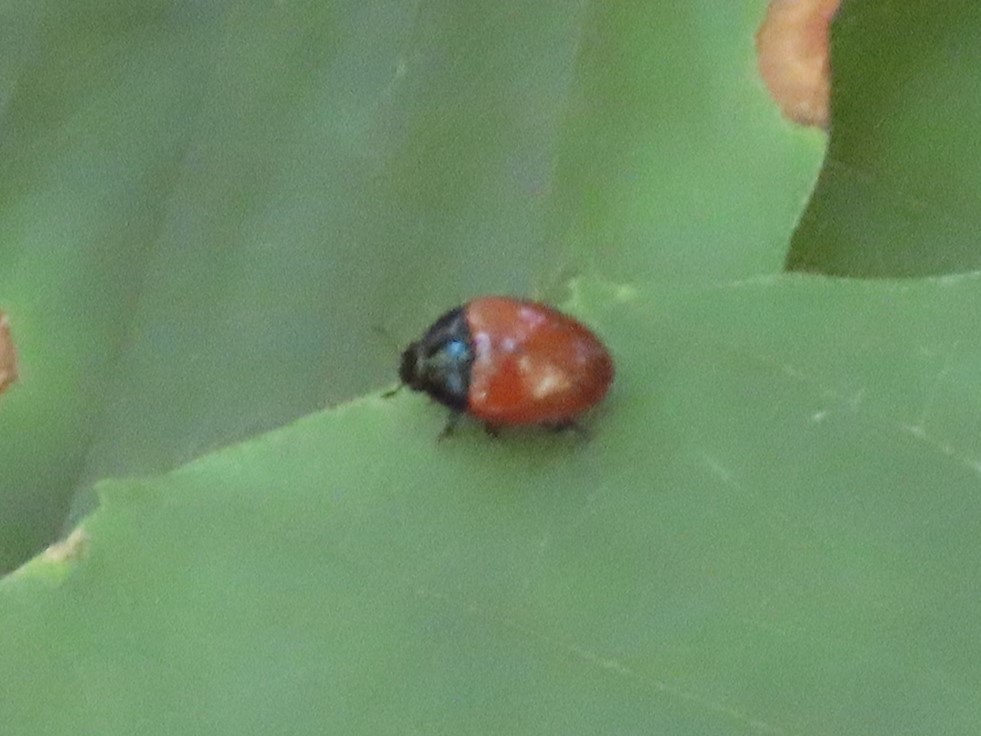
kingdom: Animalia
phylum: Arthropoda
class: Insecta
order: Coleoptera
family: Erotylidae
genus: Tritoma
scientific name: Tritoma sanguinipennis
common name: Red-winged tritoma
